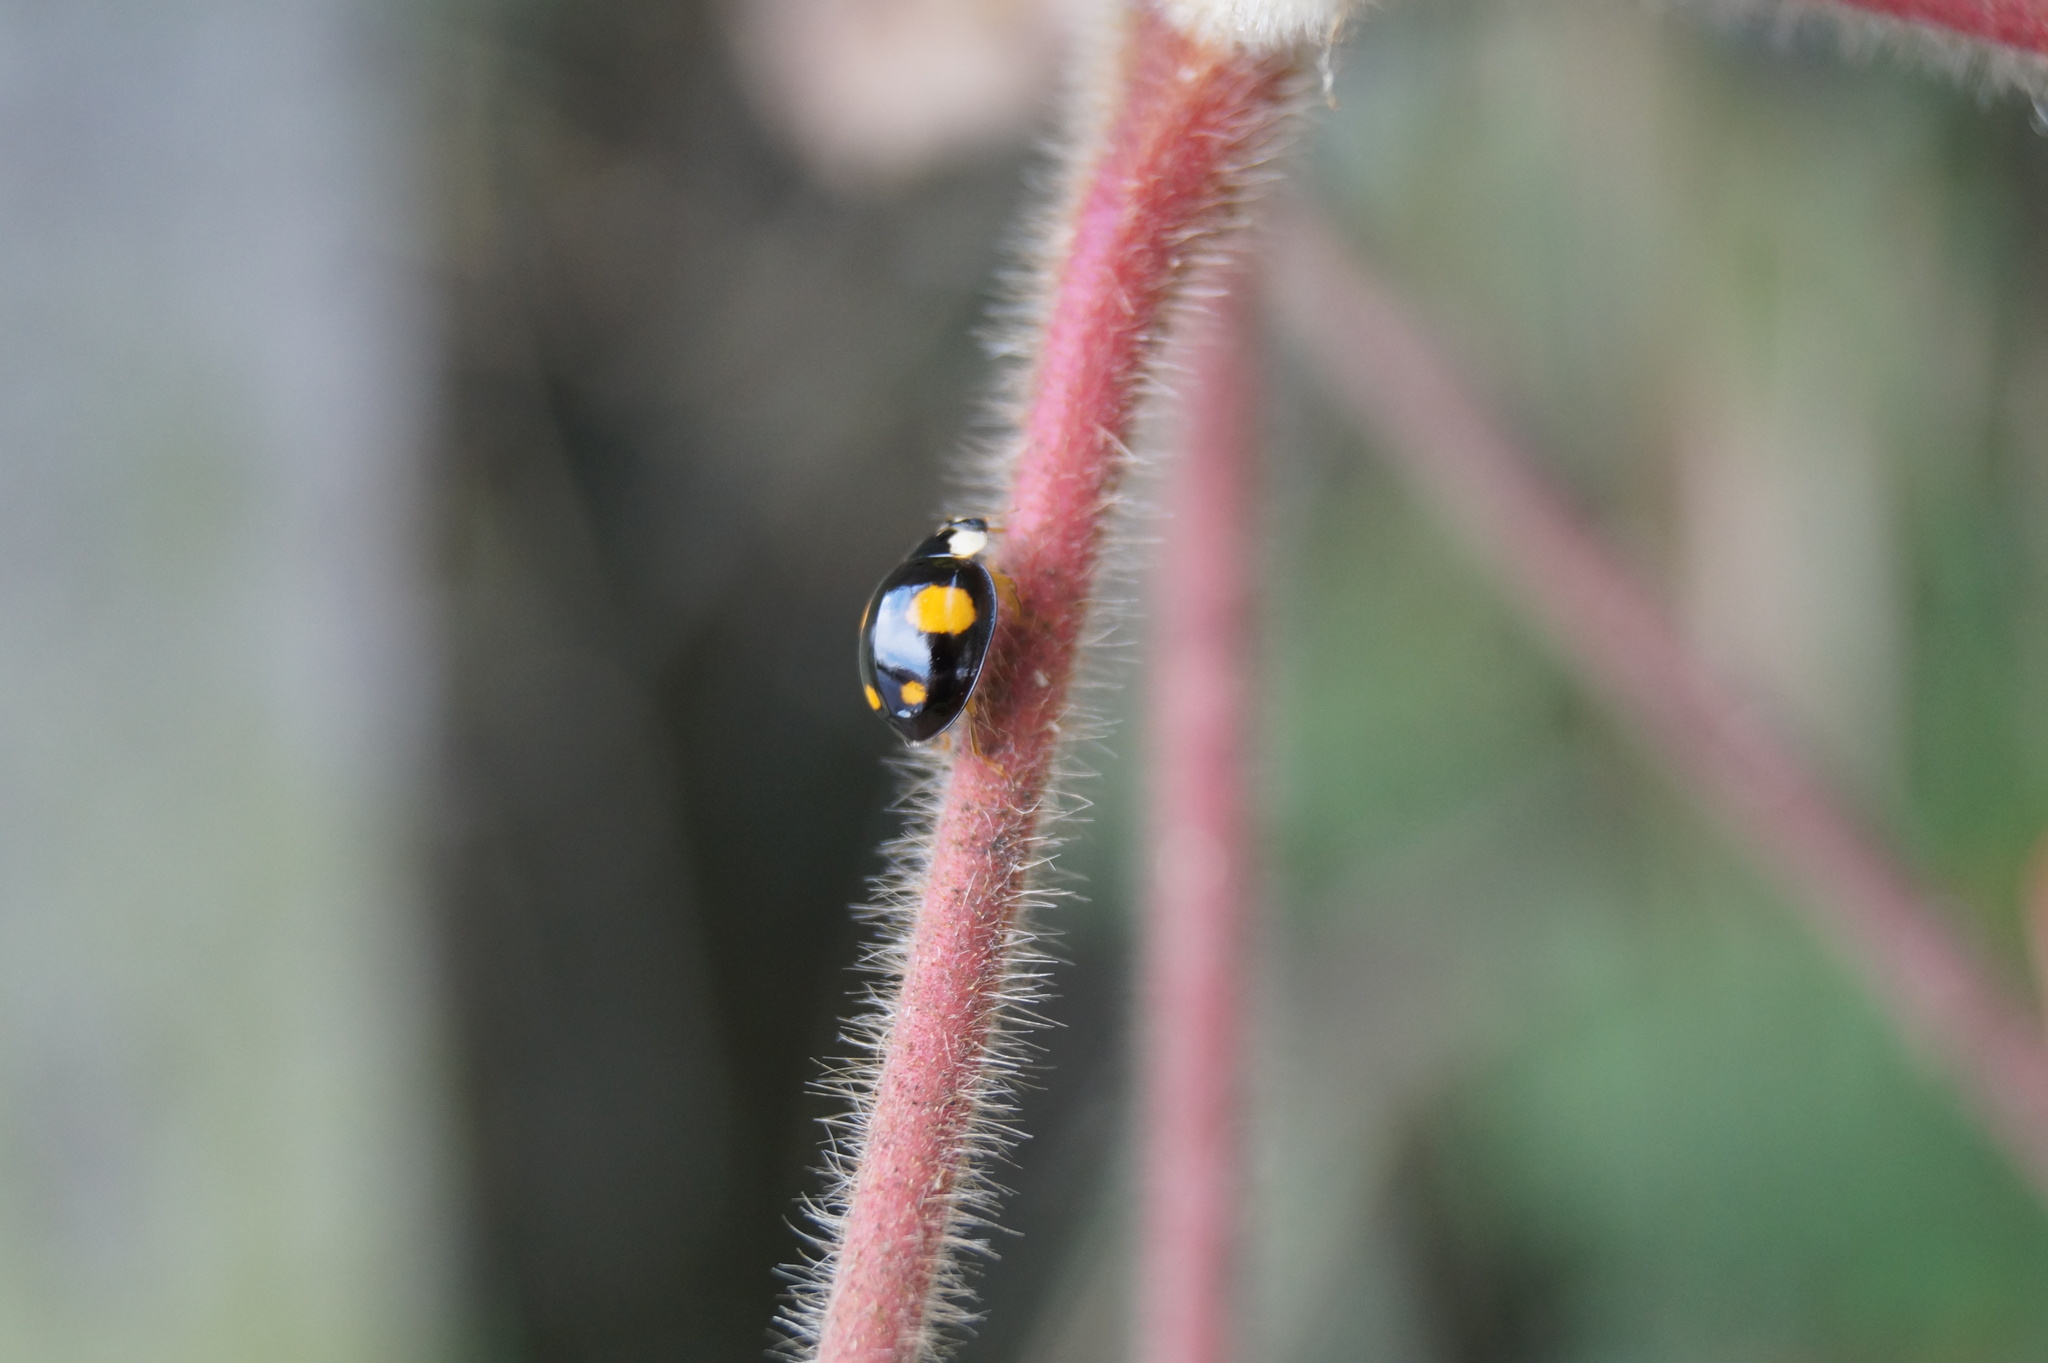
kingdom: Animalia
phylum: Arthropoda
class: Insecta
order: Coleoptera
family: Coccinellidae
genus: Harmonia
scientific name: Harmonia axyridis
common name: Harlequin ladybird
